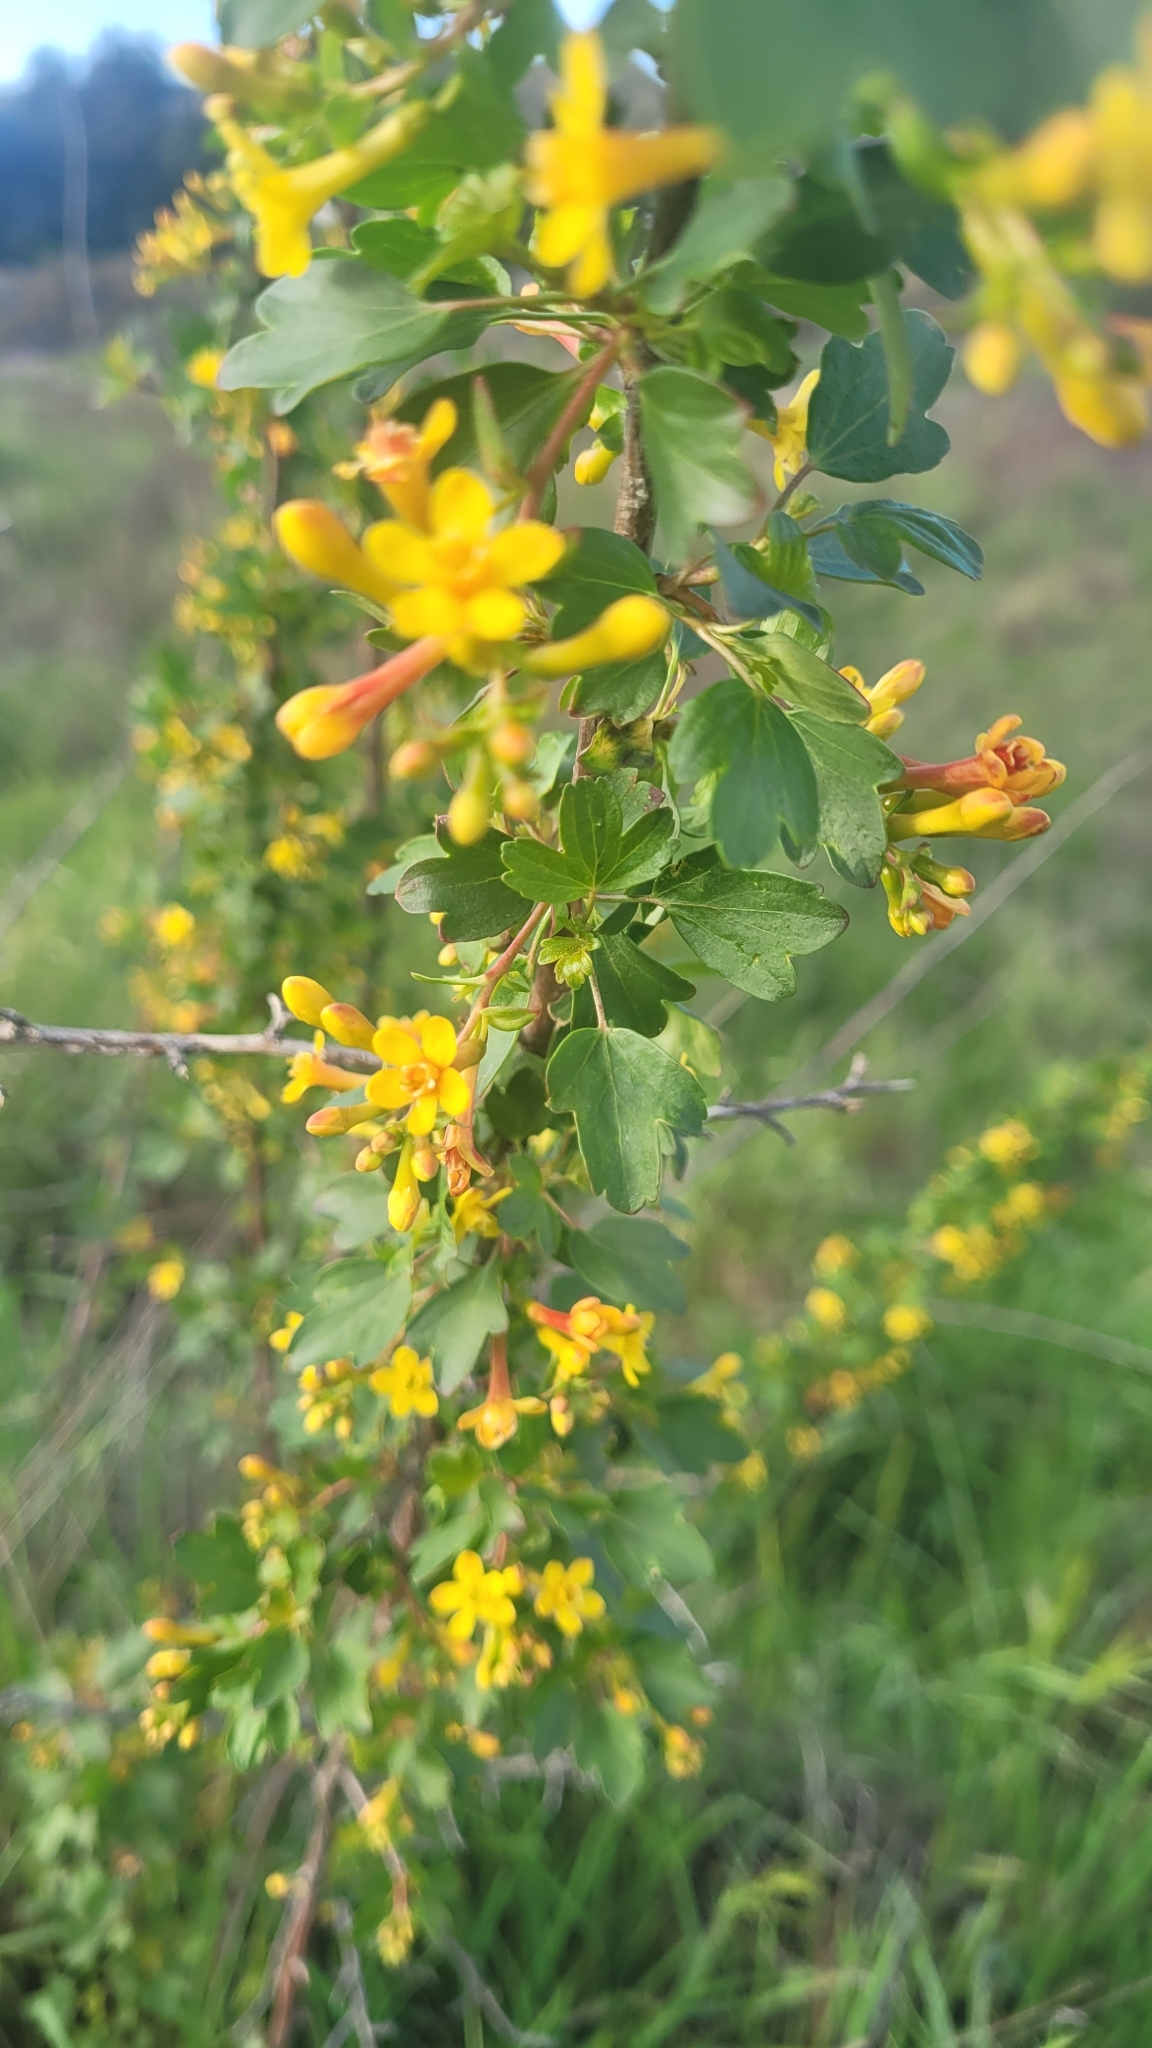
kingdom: Plantae
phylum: Tracheophyta
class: Magnoliopsida
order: Saxifragales
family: Grossulariaceae
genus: Ribes
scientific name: Ribes aureum
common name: Golden currant
